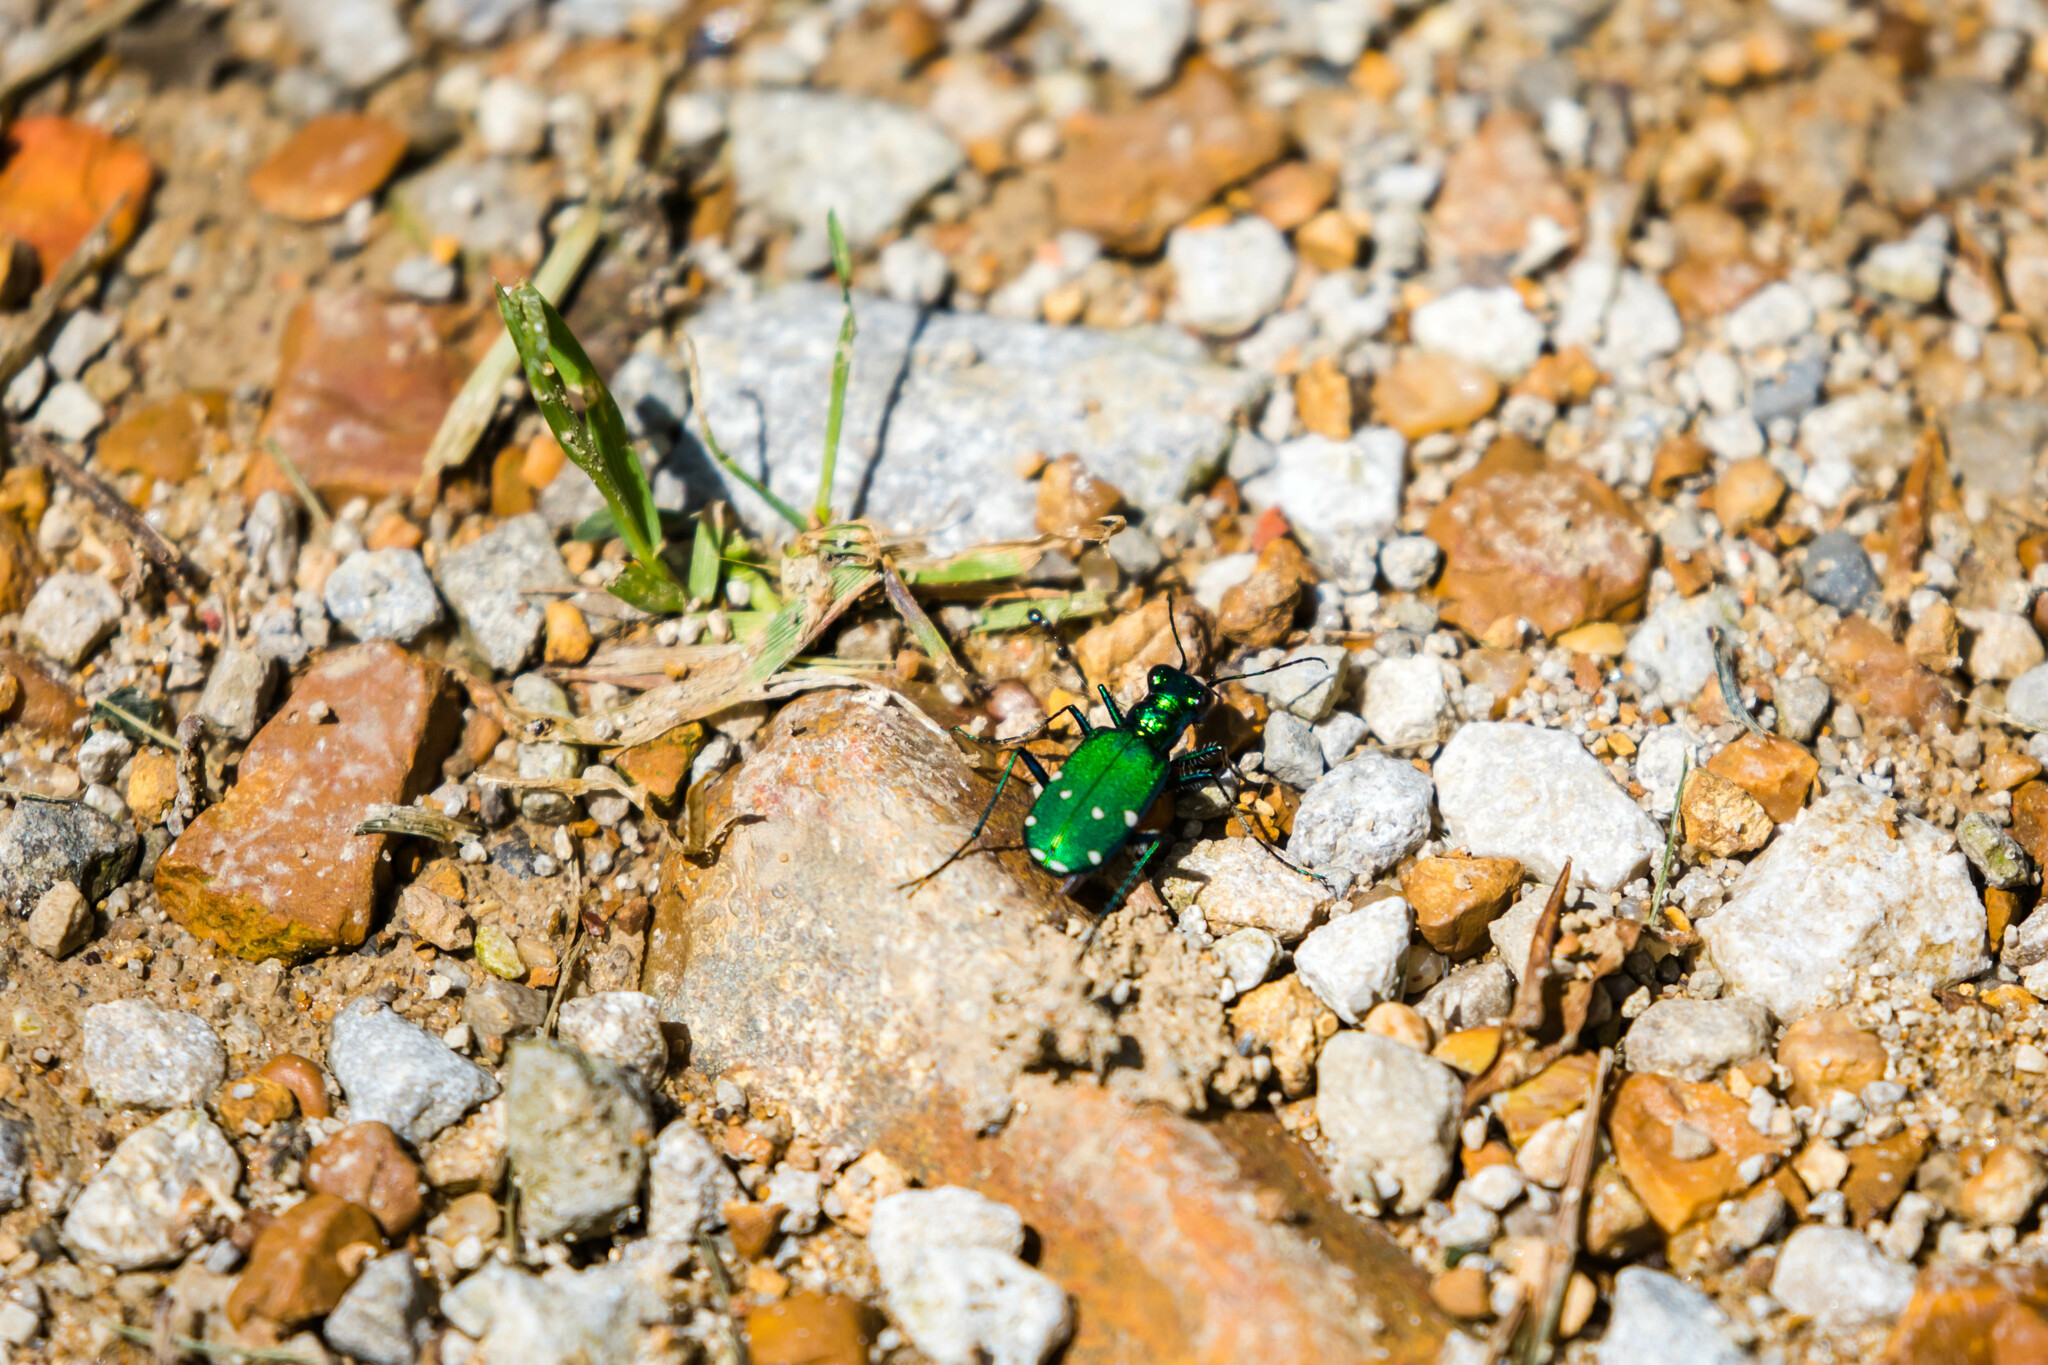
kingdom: Animalia
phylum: Arthropoda
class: Insecta
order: Coleoptera
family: Carabidae
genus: Cicindela
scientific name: Cicindela sexguttata
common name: Six-spotted tiger beetle
